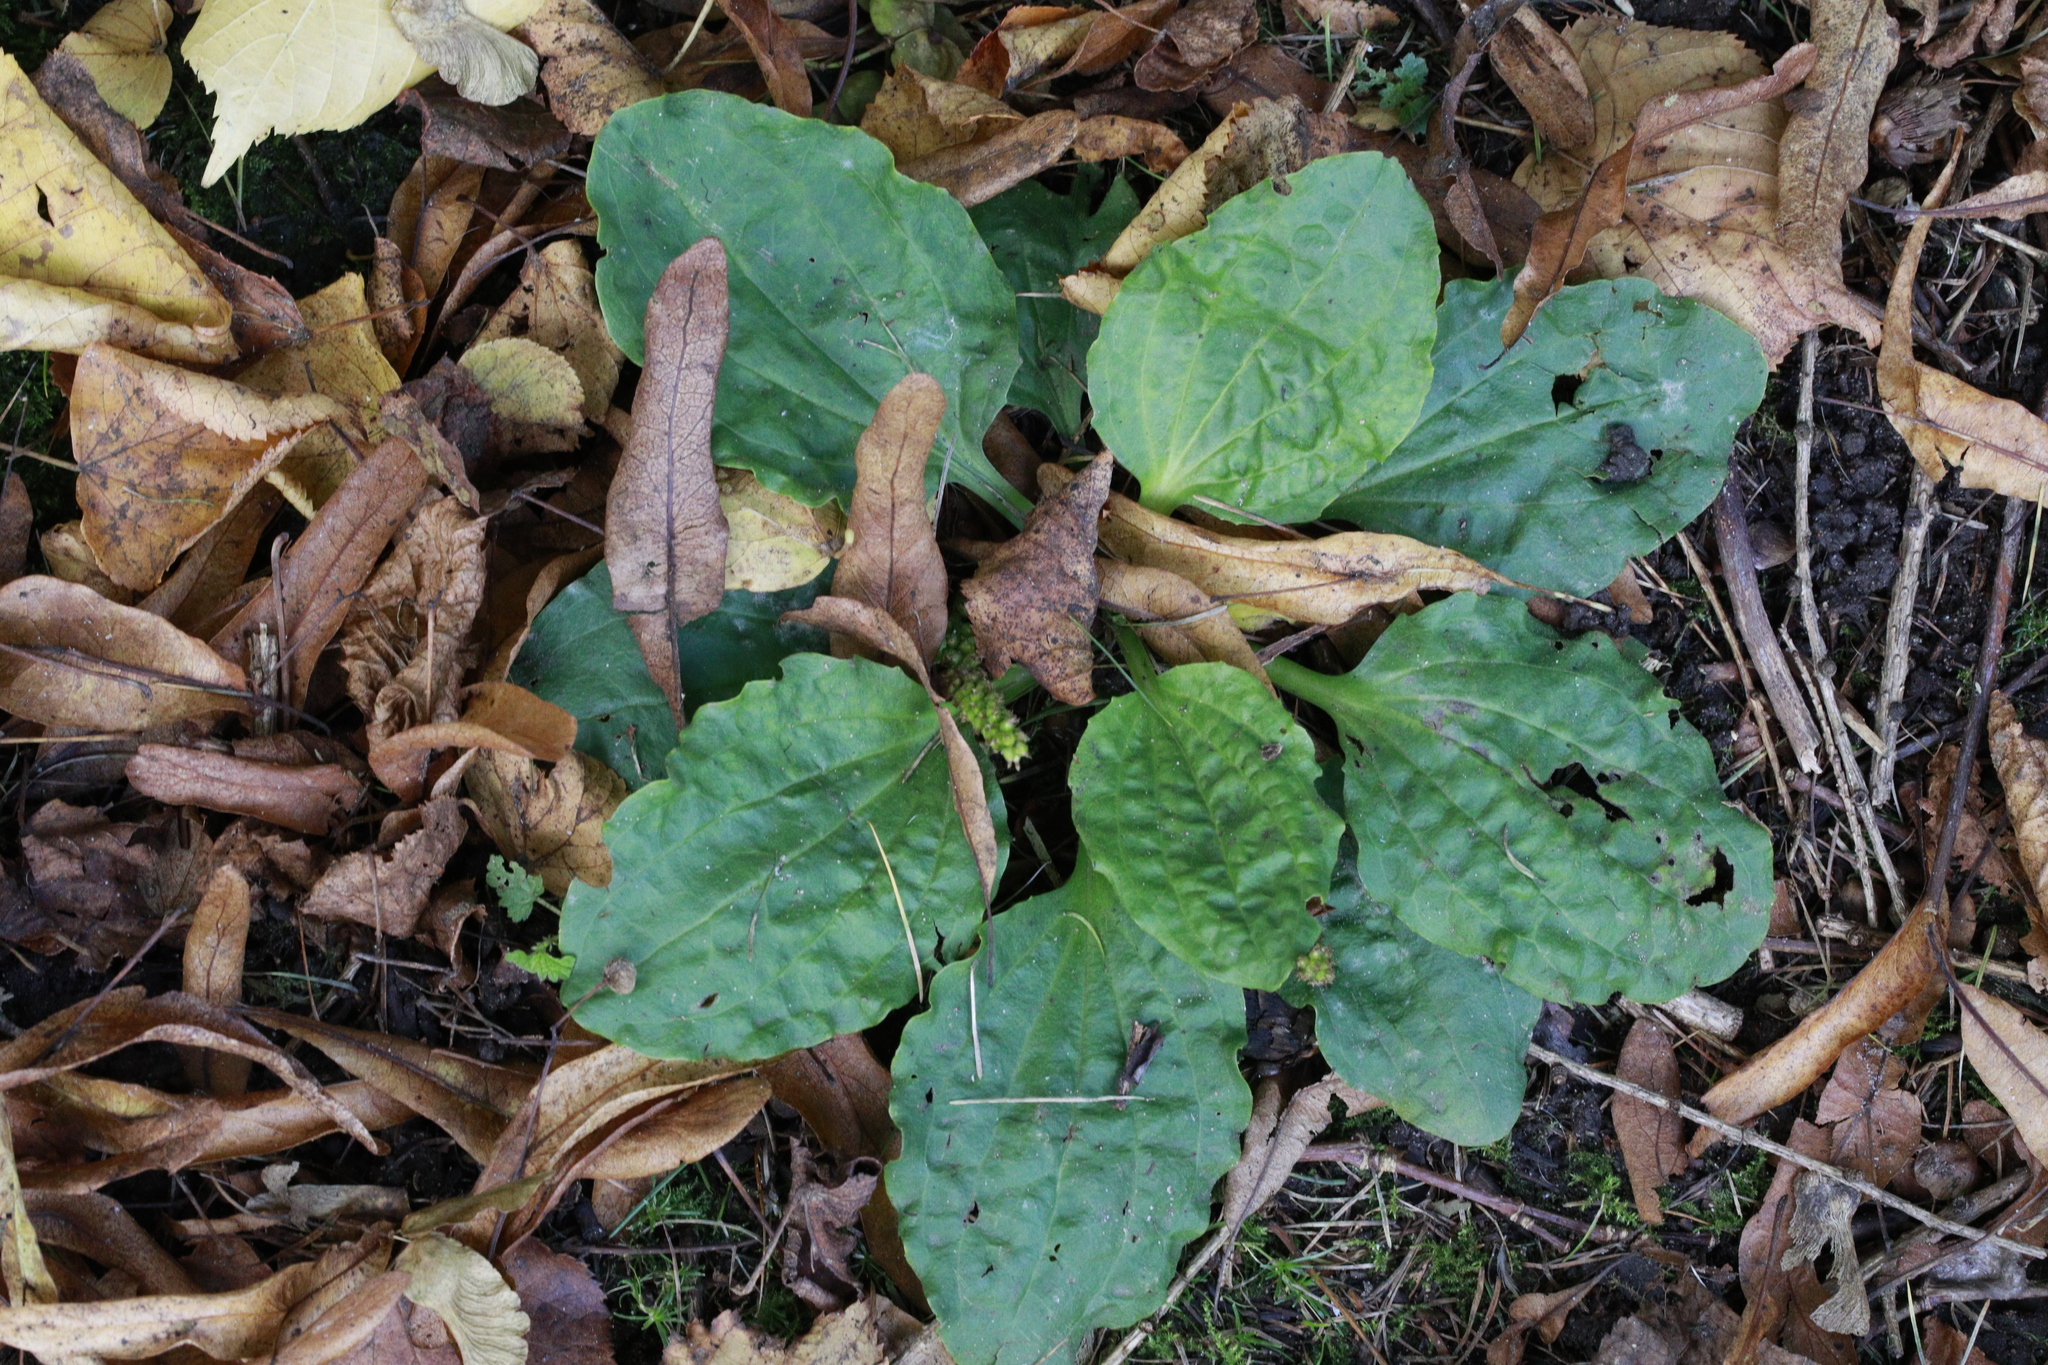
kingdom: Plantae
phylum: Tracheophyta
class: Magnoliopsida
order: Lamiales
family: Plantaginaceae
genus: Plantago
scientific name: Plantago major
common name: Common plantain
